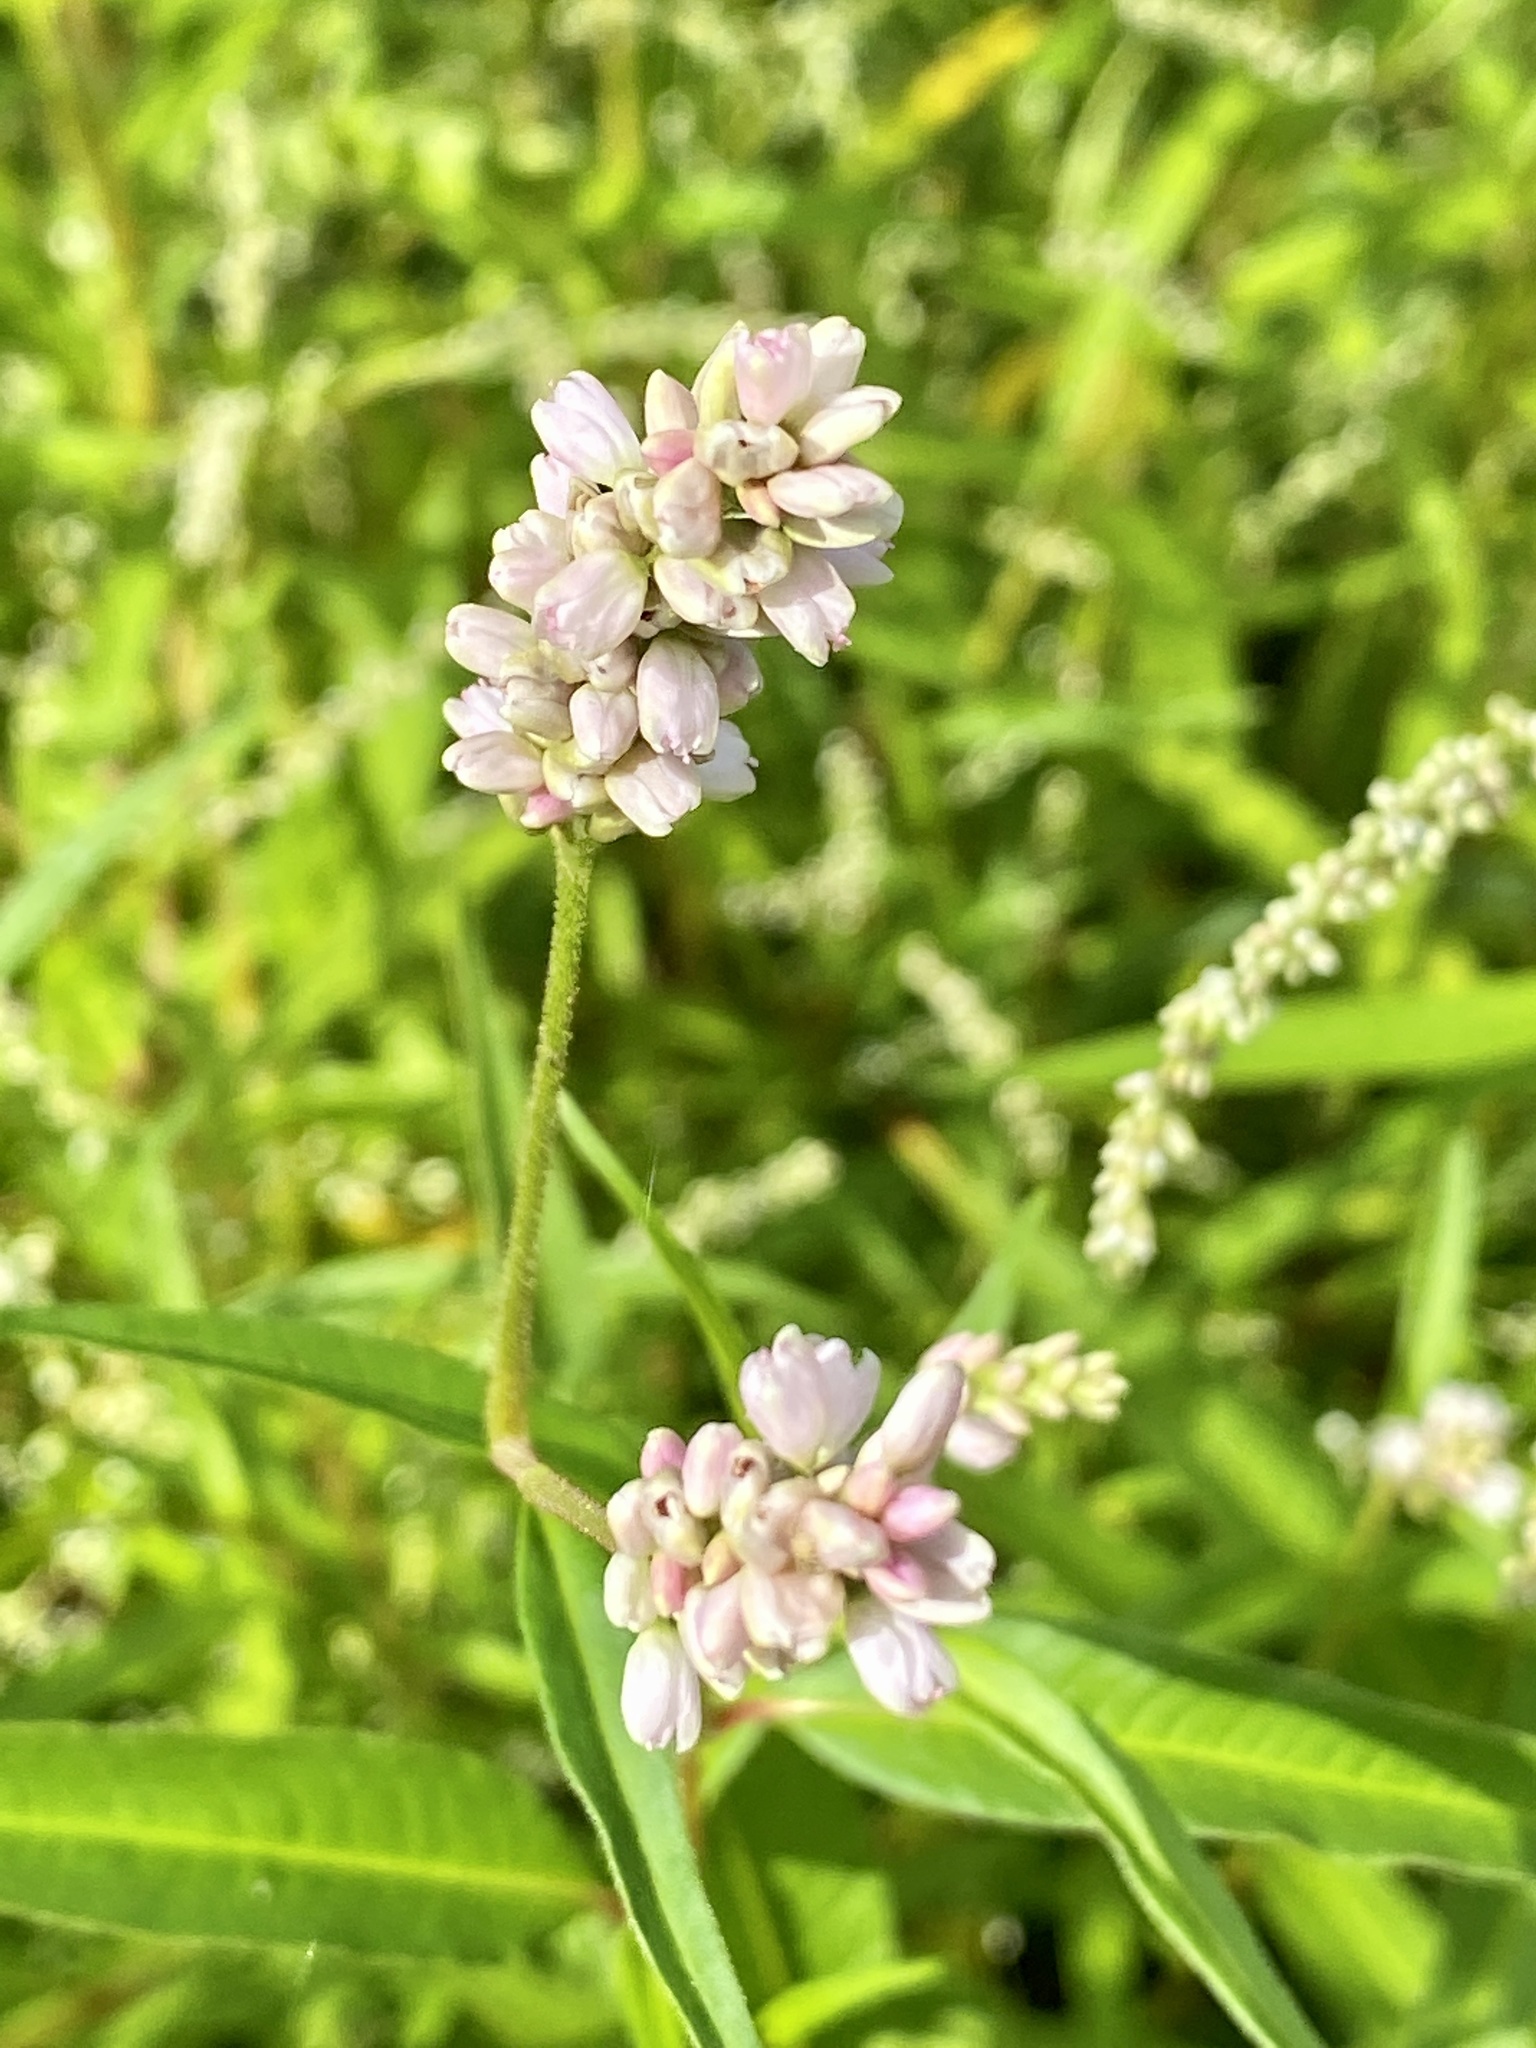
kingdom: Plantae
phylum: Tracheophyta
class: Magnoliopsida
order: Caryophyllales
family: Polygonaceae
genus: Persicaria
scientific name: Persicaria pensylvanica
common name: Pinkweed
